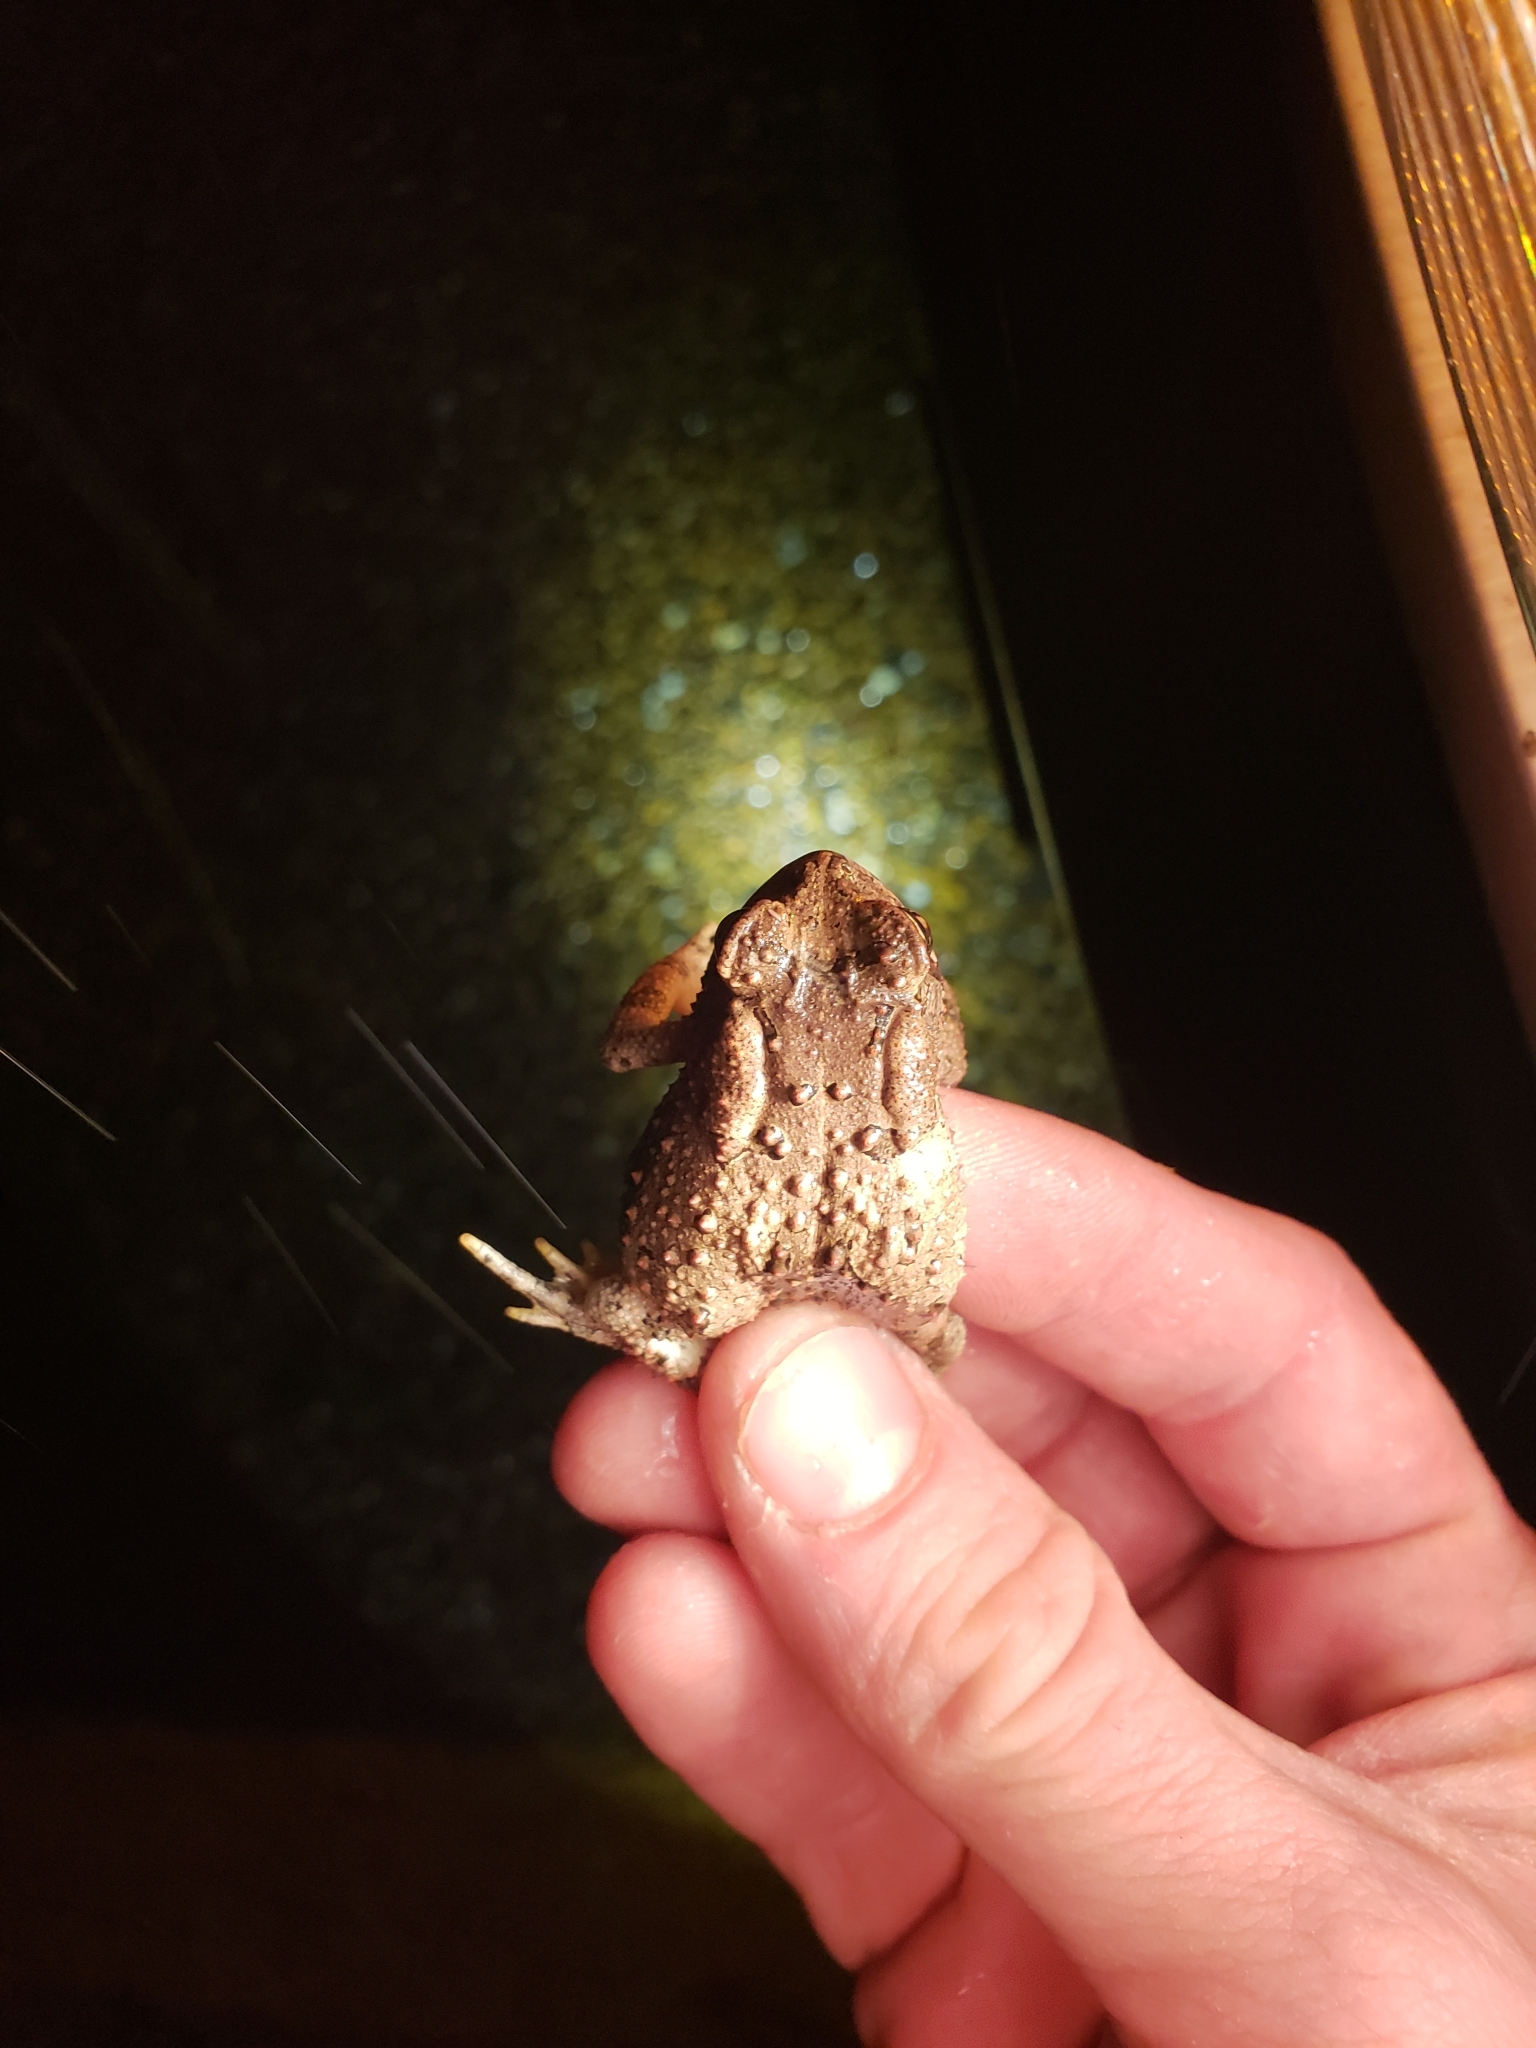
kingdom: Animalia
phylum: Chordata
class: Amphibia
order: Anura
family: Bufonidae
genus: Anaxyrus
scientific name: Anaxyrus americanus
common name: American toad
